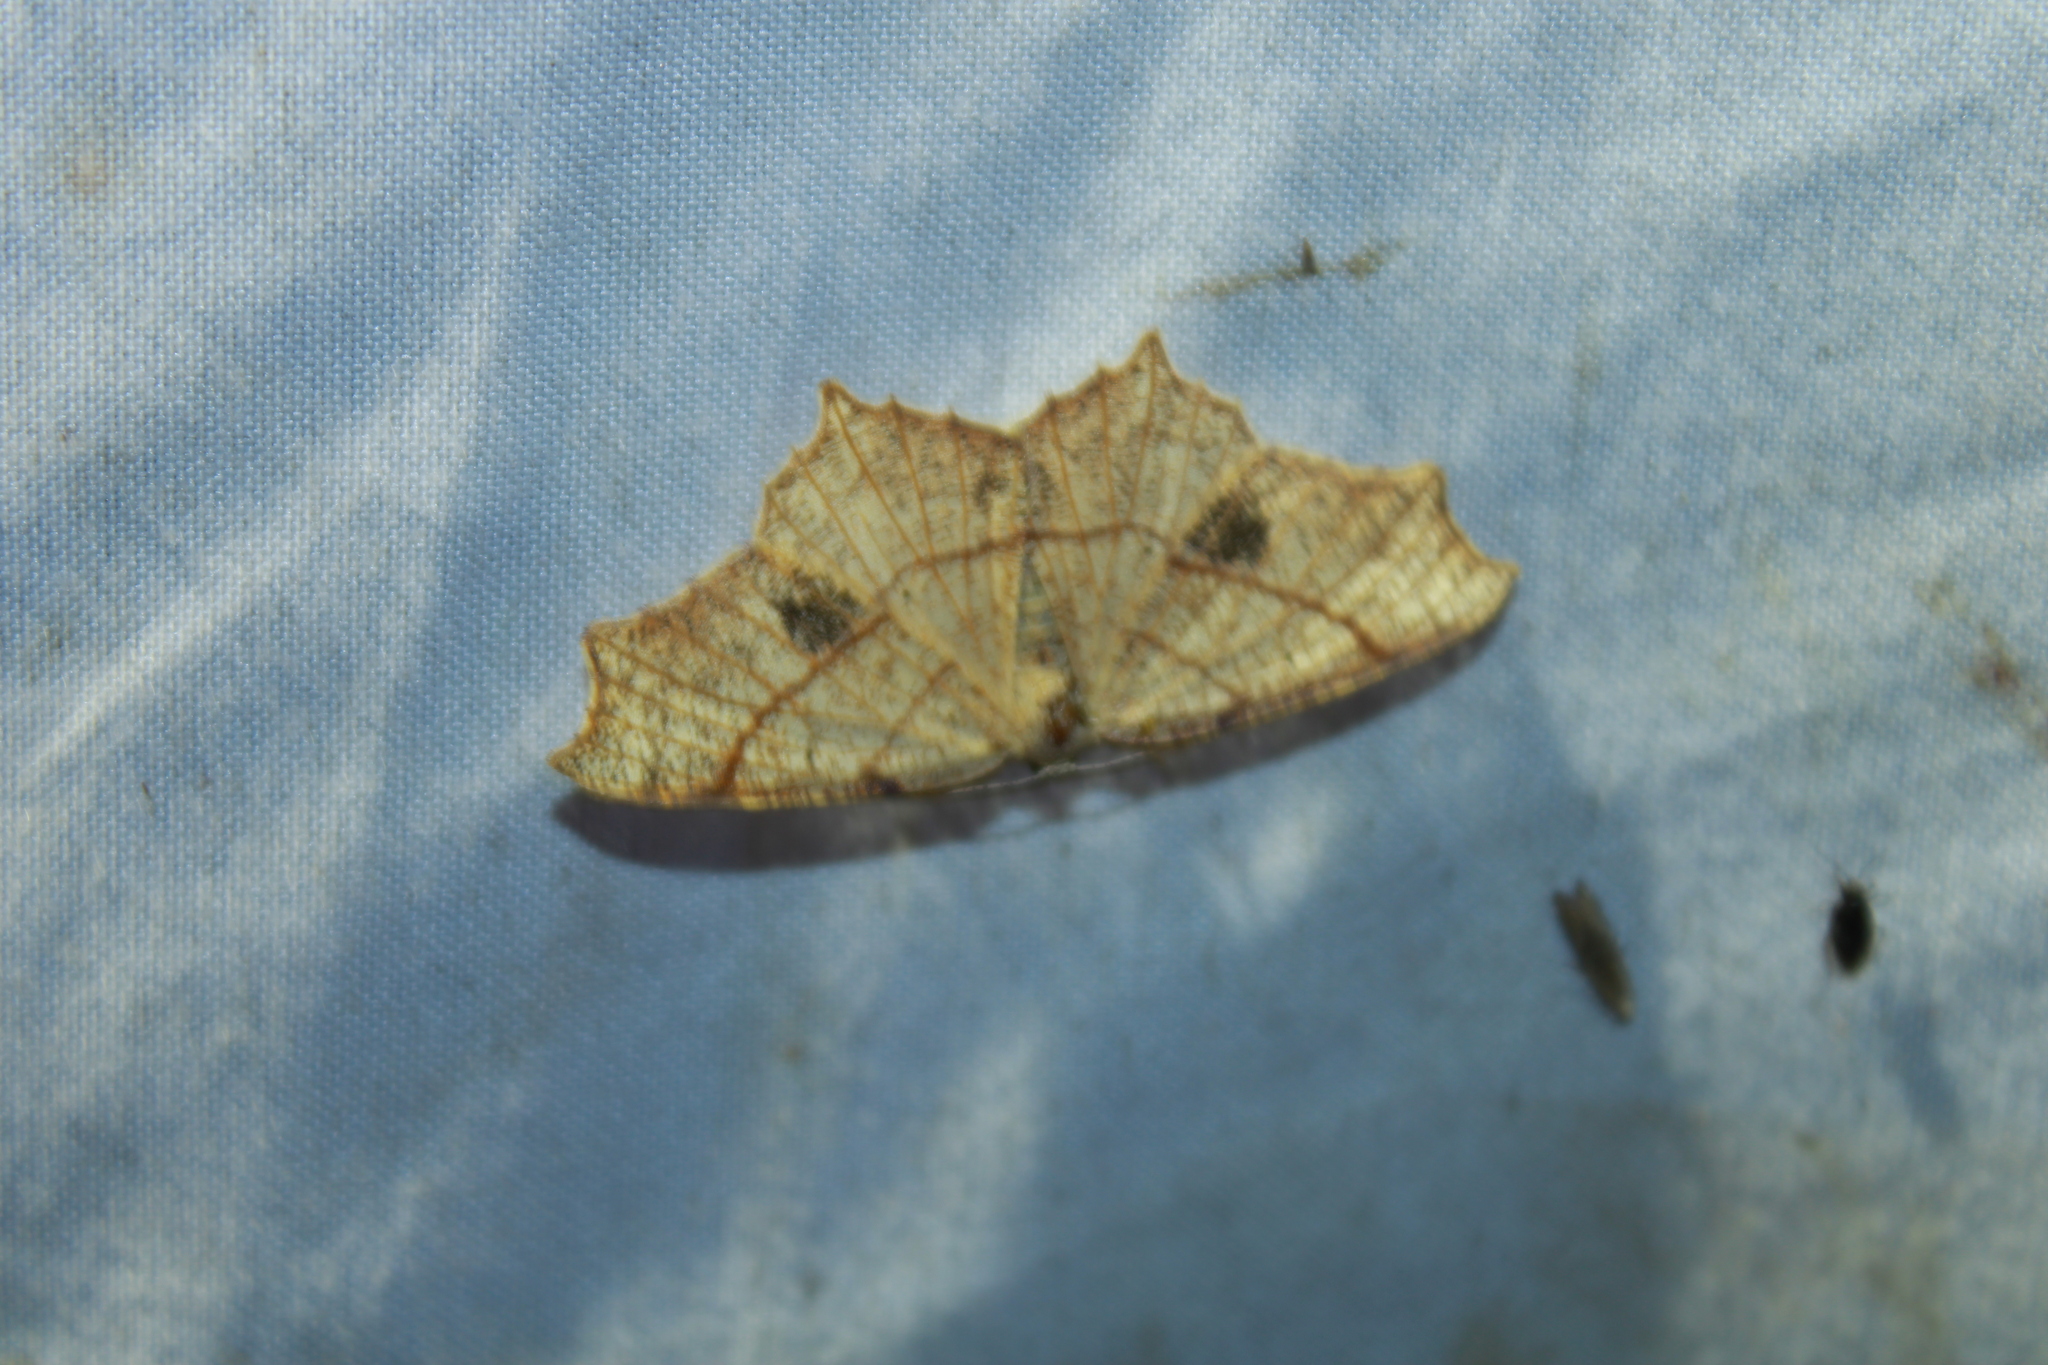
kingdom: Animalia
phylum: Arthropoda
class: Insecta
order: Lepidoptera
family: Geometridae
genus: Besma
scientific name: Besma quercivoraria
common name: Oak besma
